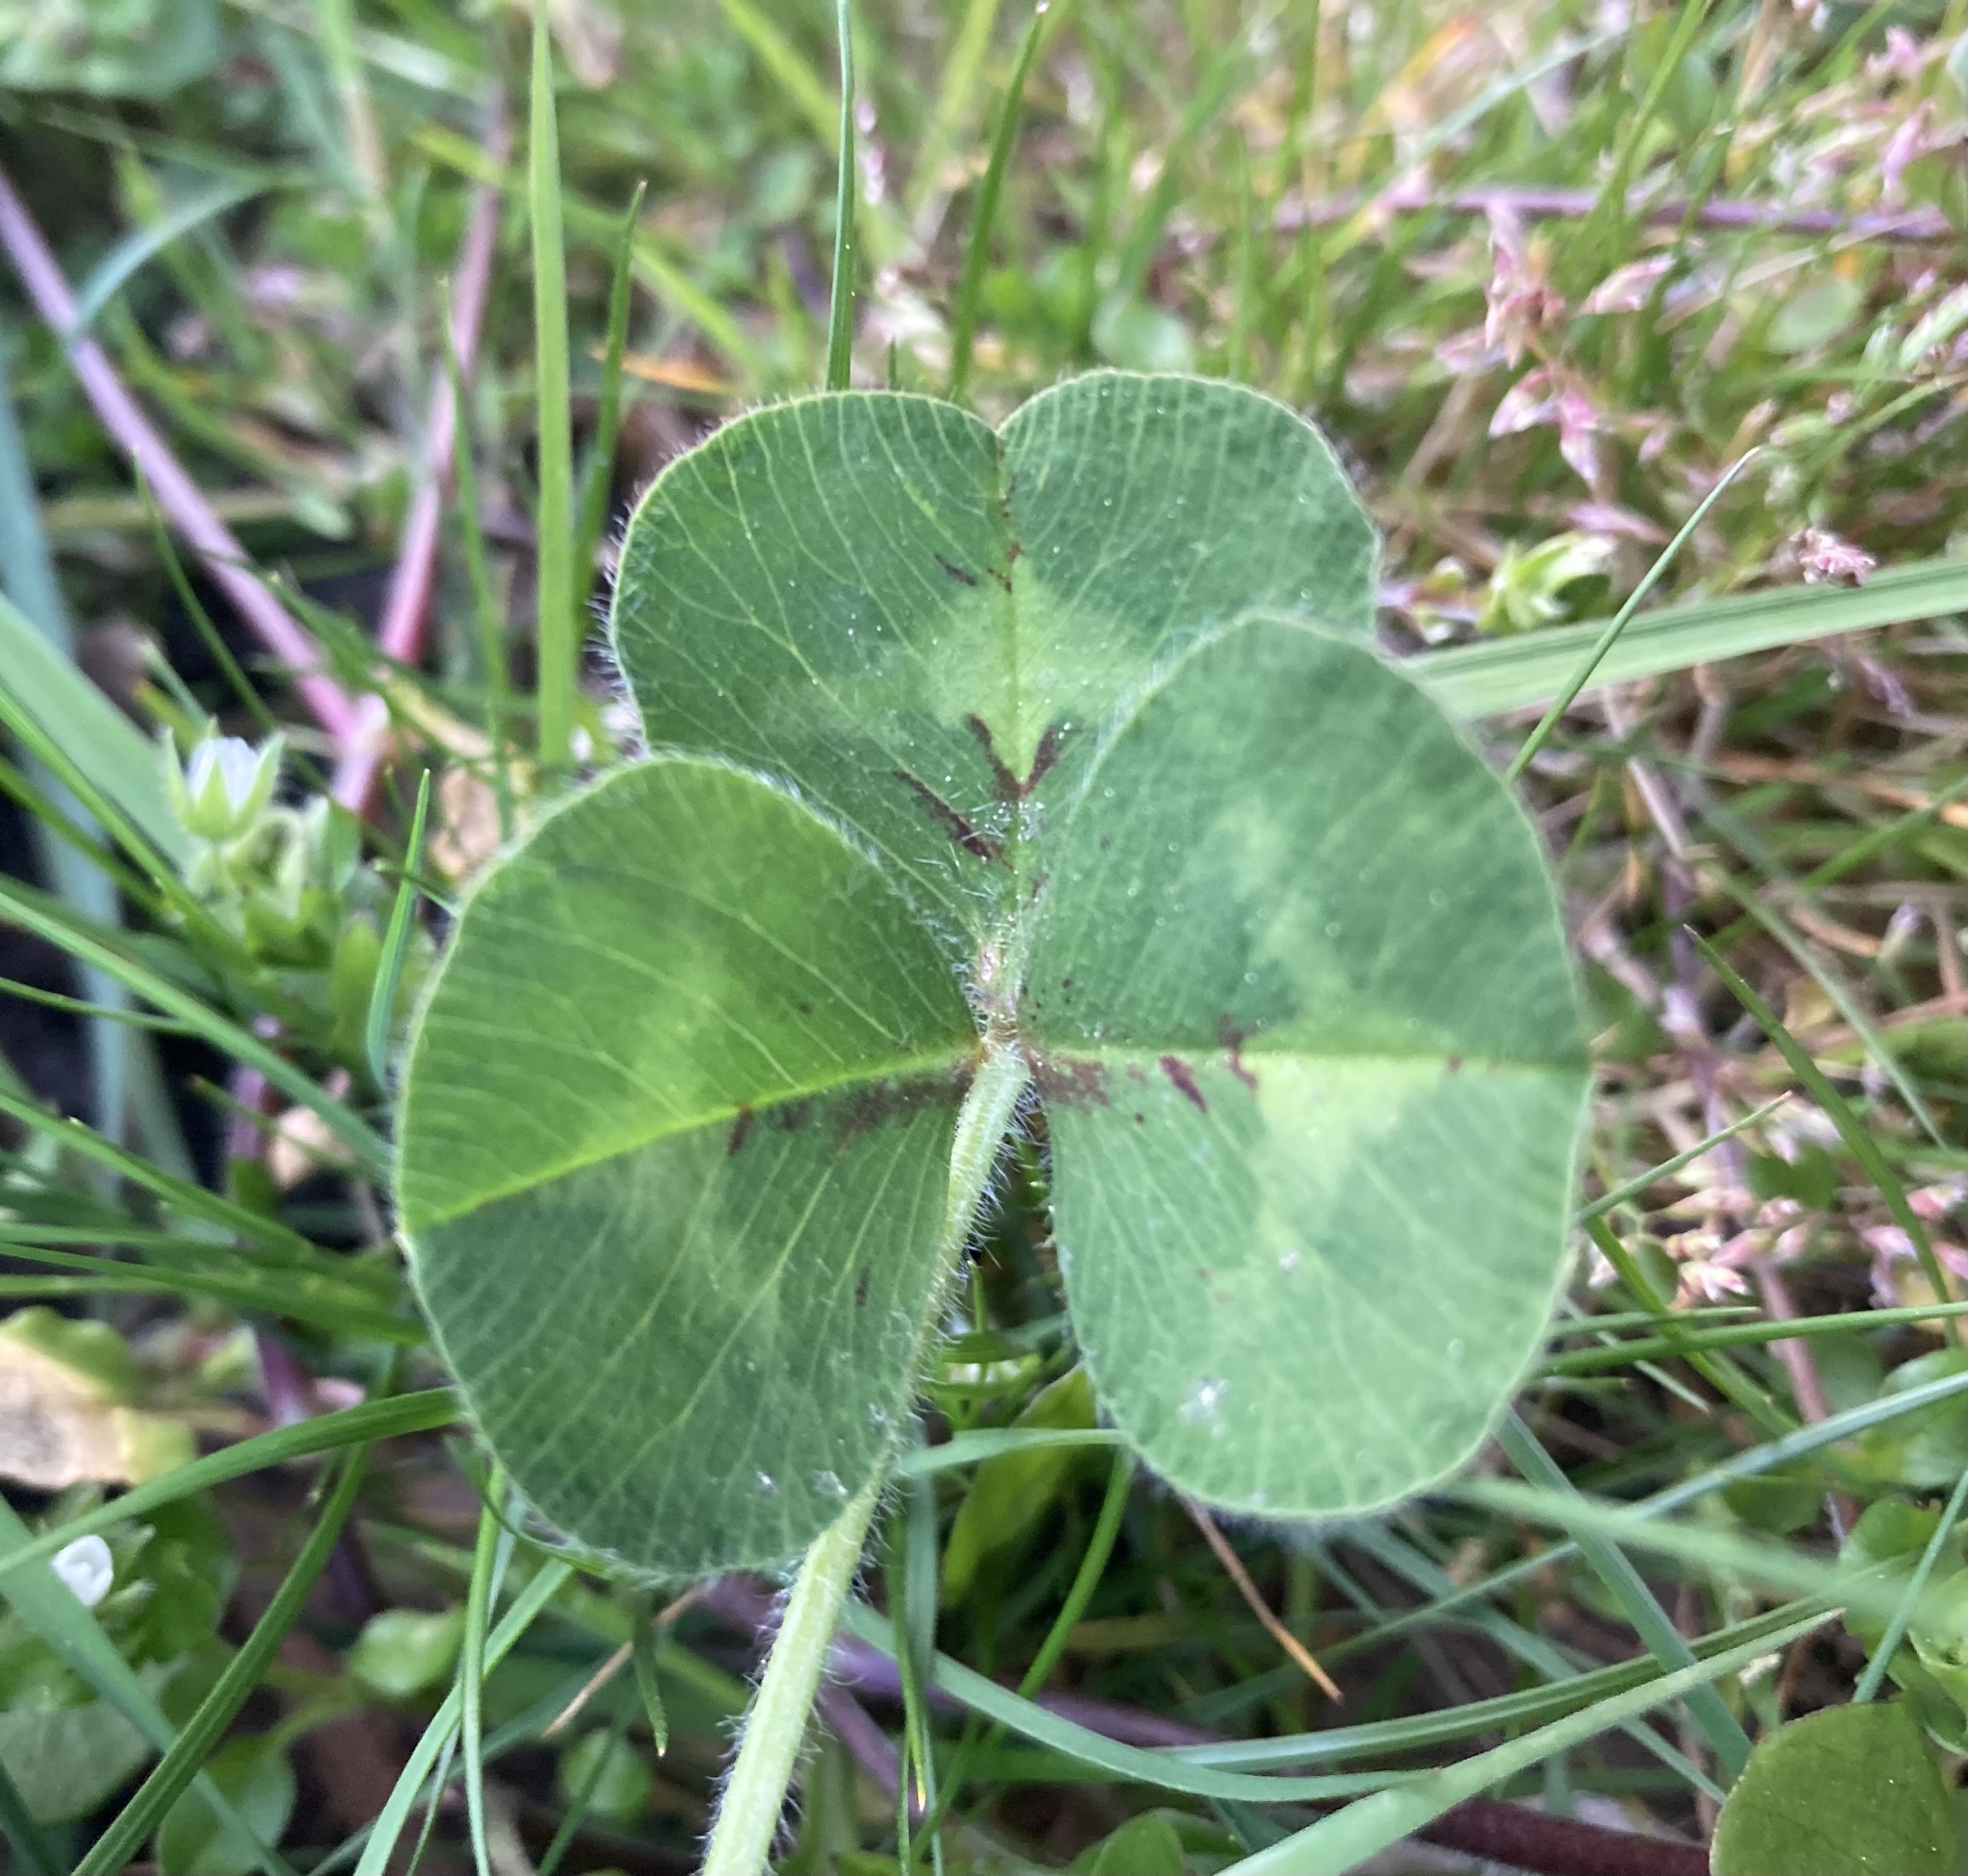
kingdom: Plantae
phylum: Tracheophyta
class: Magnoliopsida
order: Fabales
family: Fabaceae
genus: Trifolium
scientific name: Trifolium subterraneum
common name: Subterranean clover
